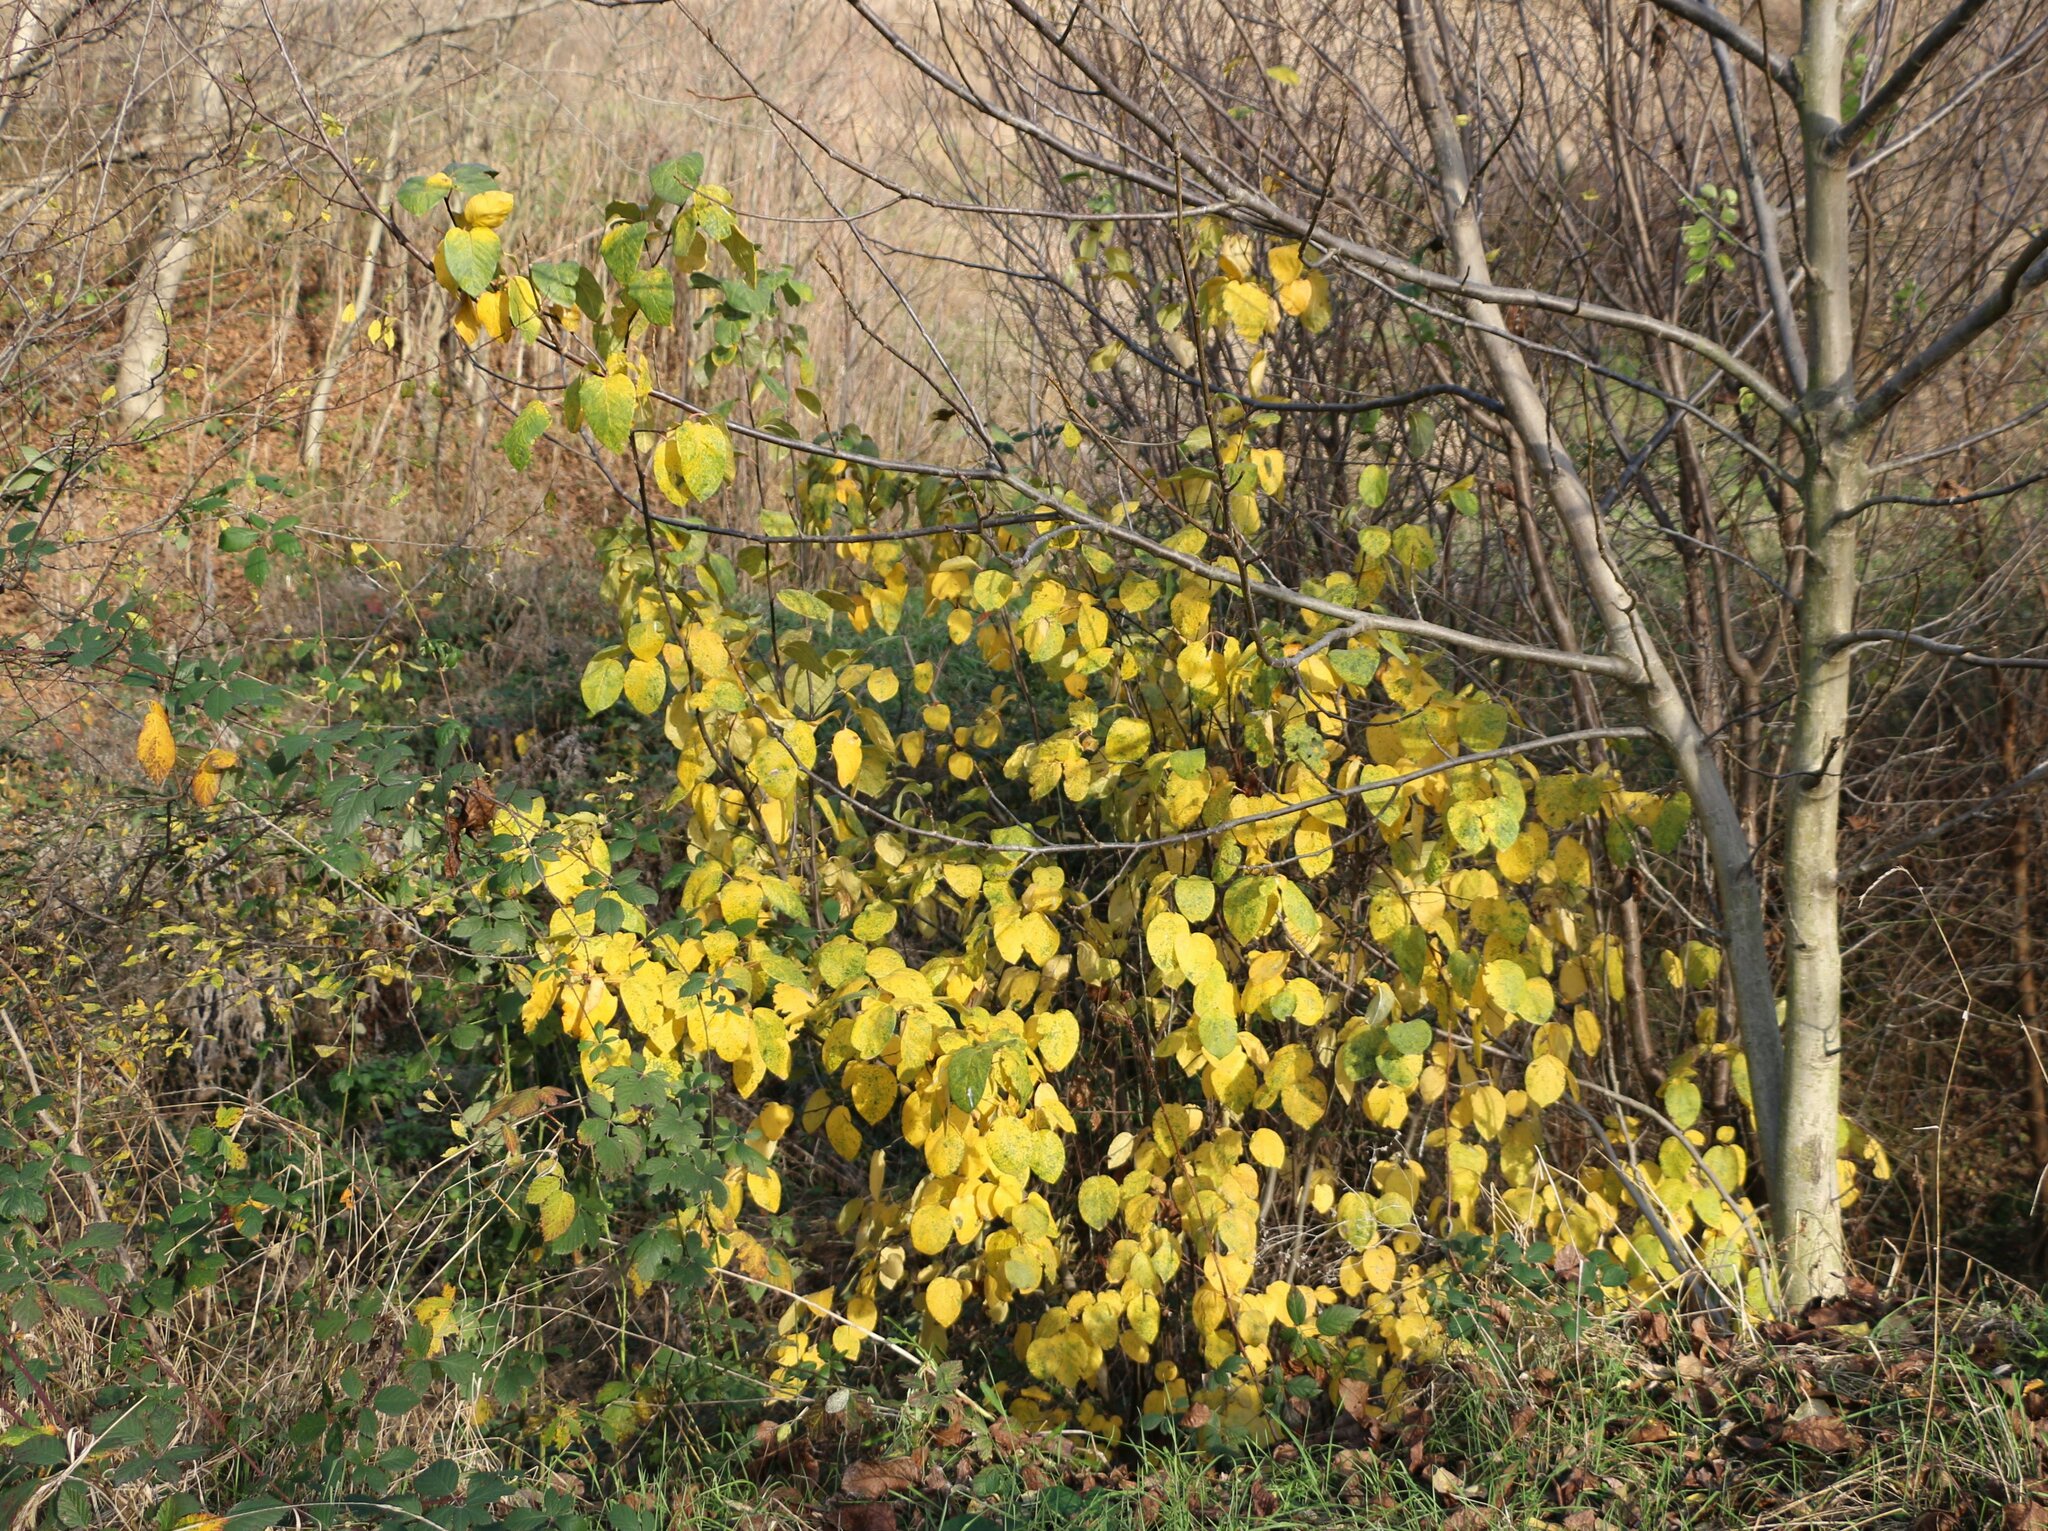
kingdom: Plantae
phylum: Tracheophyta
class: Magnoliopsida
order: Rosales
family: Rosaceae
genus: Cydonia
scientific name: Cydonia oblonga
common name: Quince
